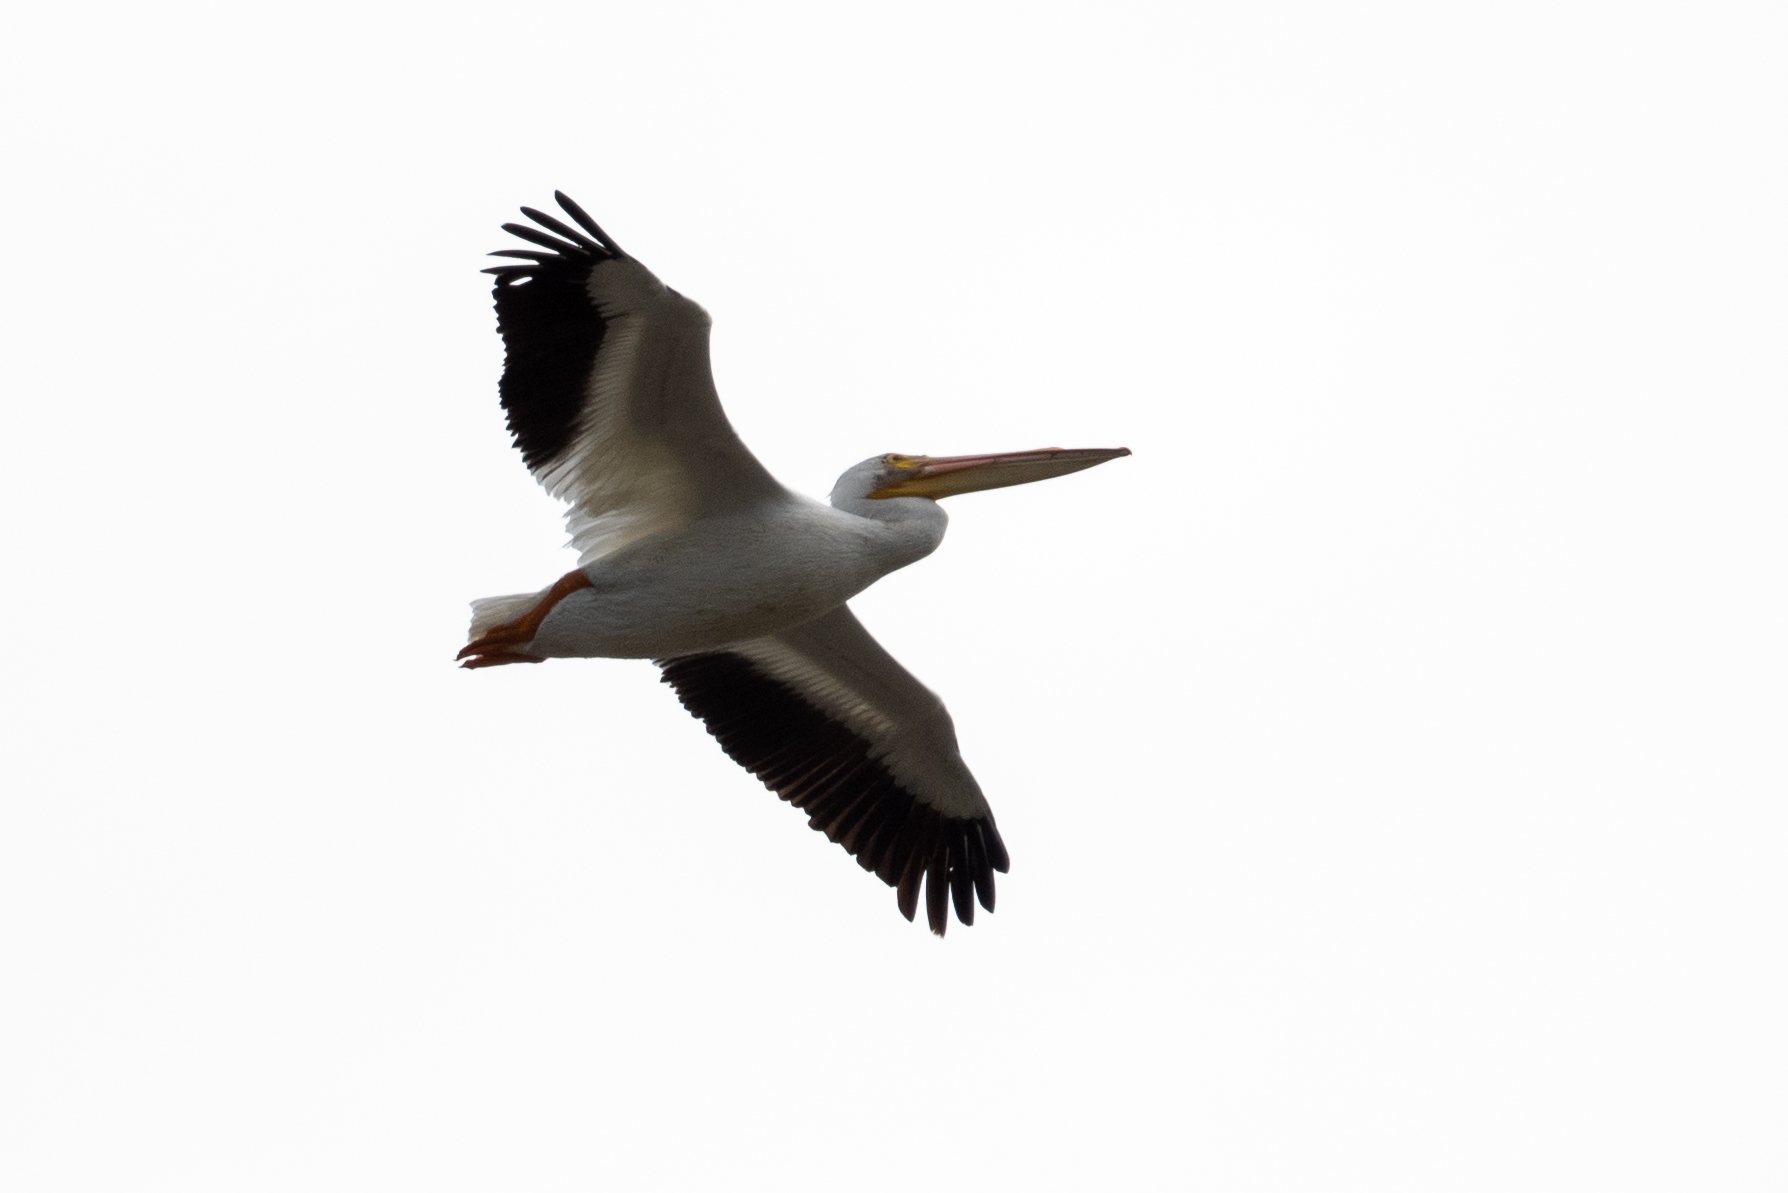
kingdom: Animalia
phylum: Chordata
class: Aves
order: Pelecaniformes
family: Pelecanidae
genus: Pelecanus
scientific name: Pelecanus erythrorhynchos
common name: American white pelican
